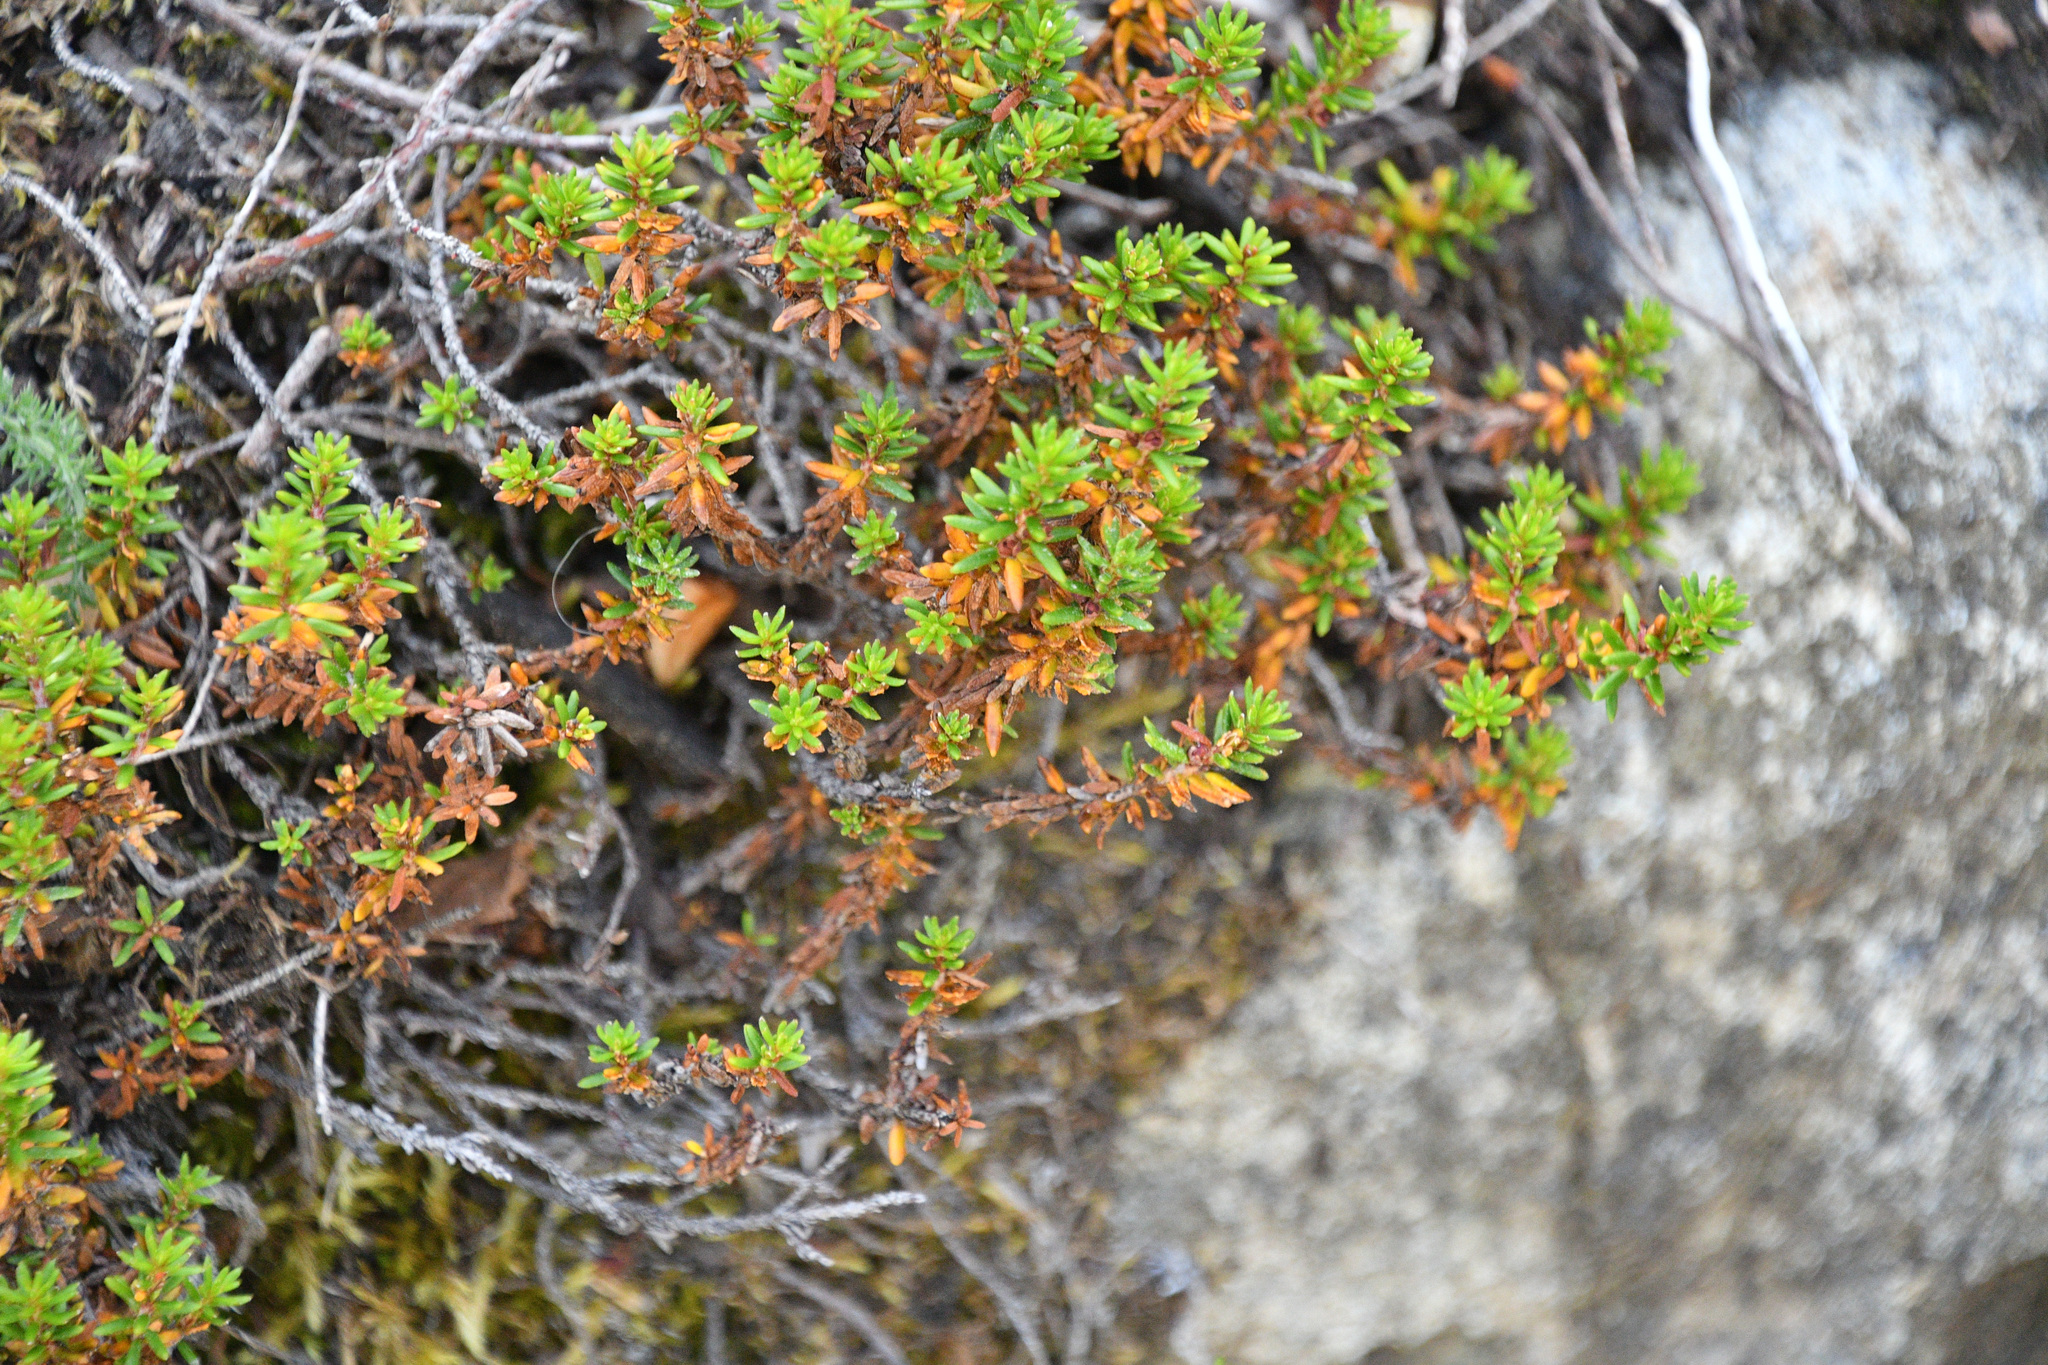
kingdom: Plantae
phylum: Tracheophyta
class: Magnoliopsida
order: Ericales
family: Ericaceae
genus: Empetrum
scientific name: Empetrum nigrum
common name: Black crowberry
